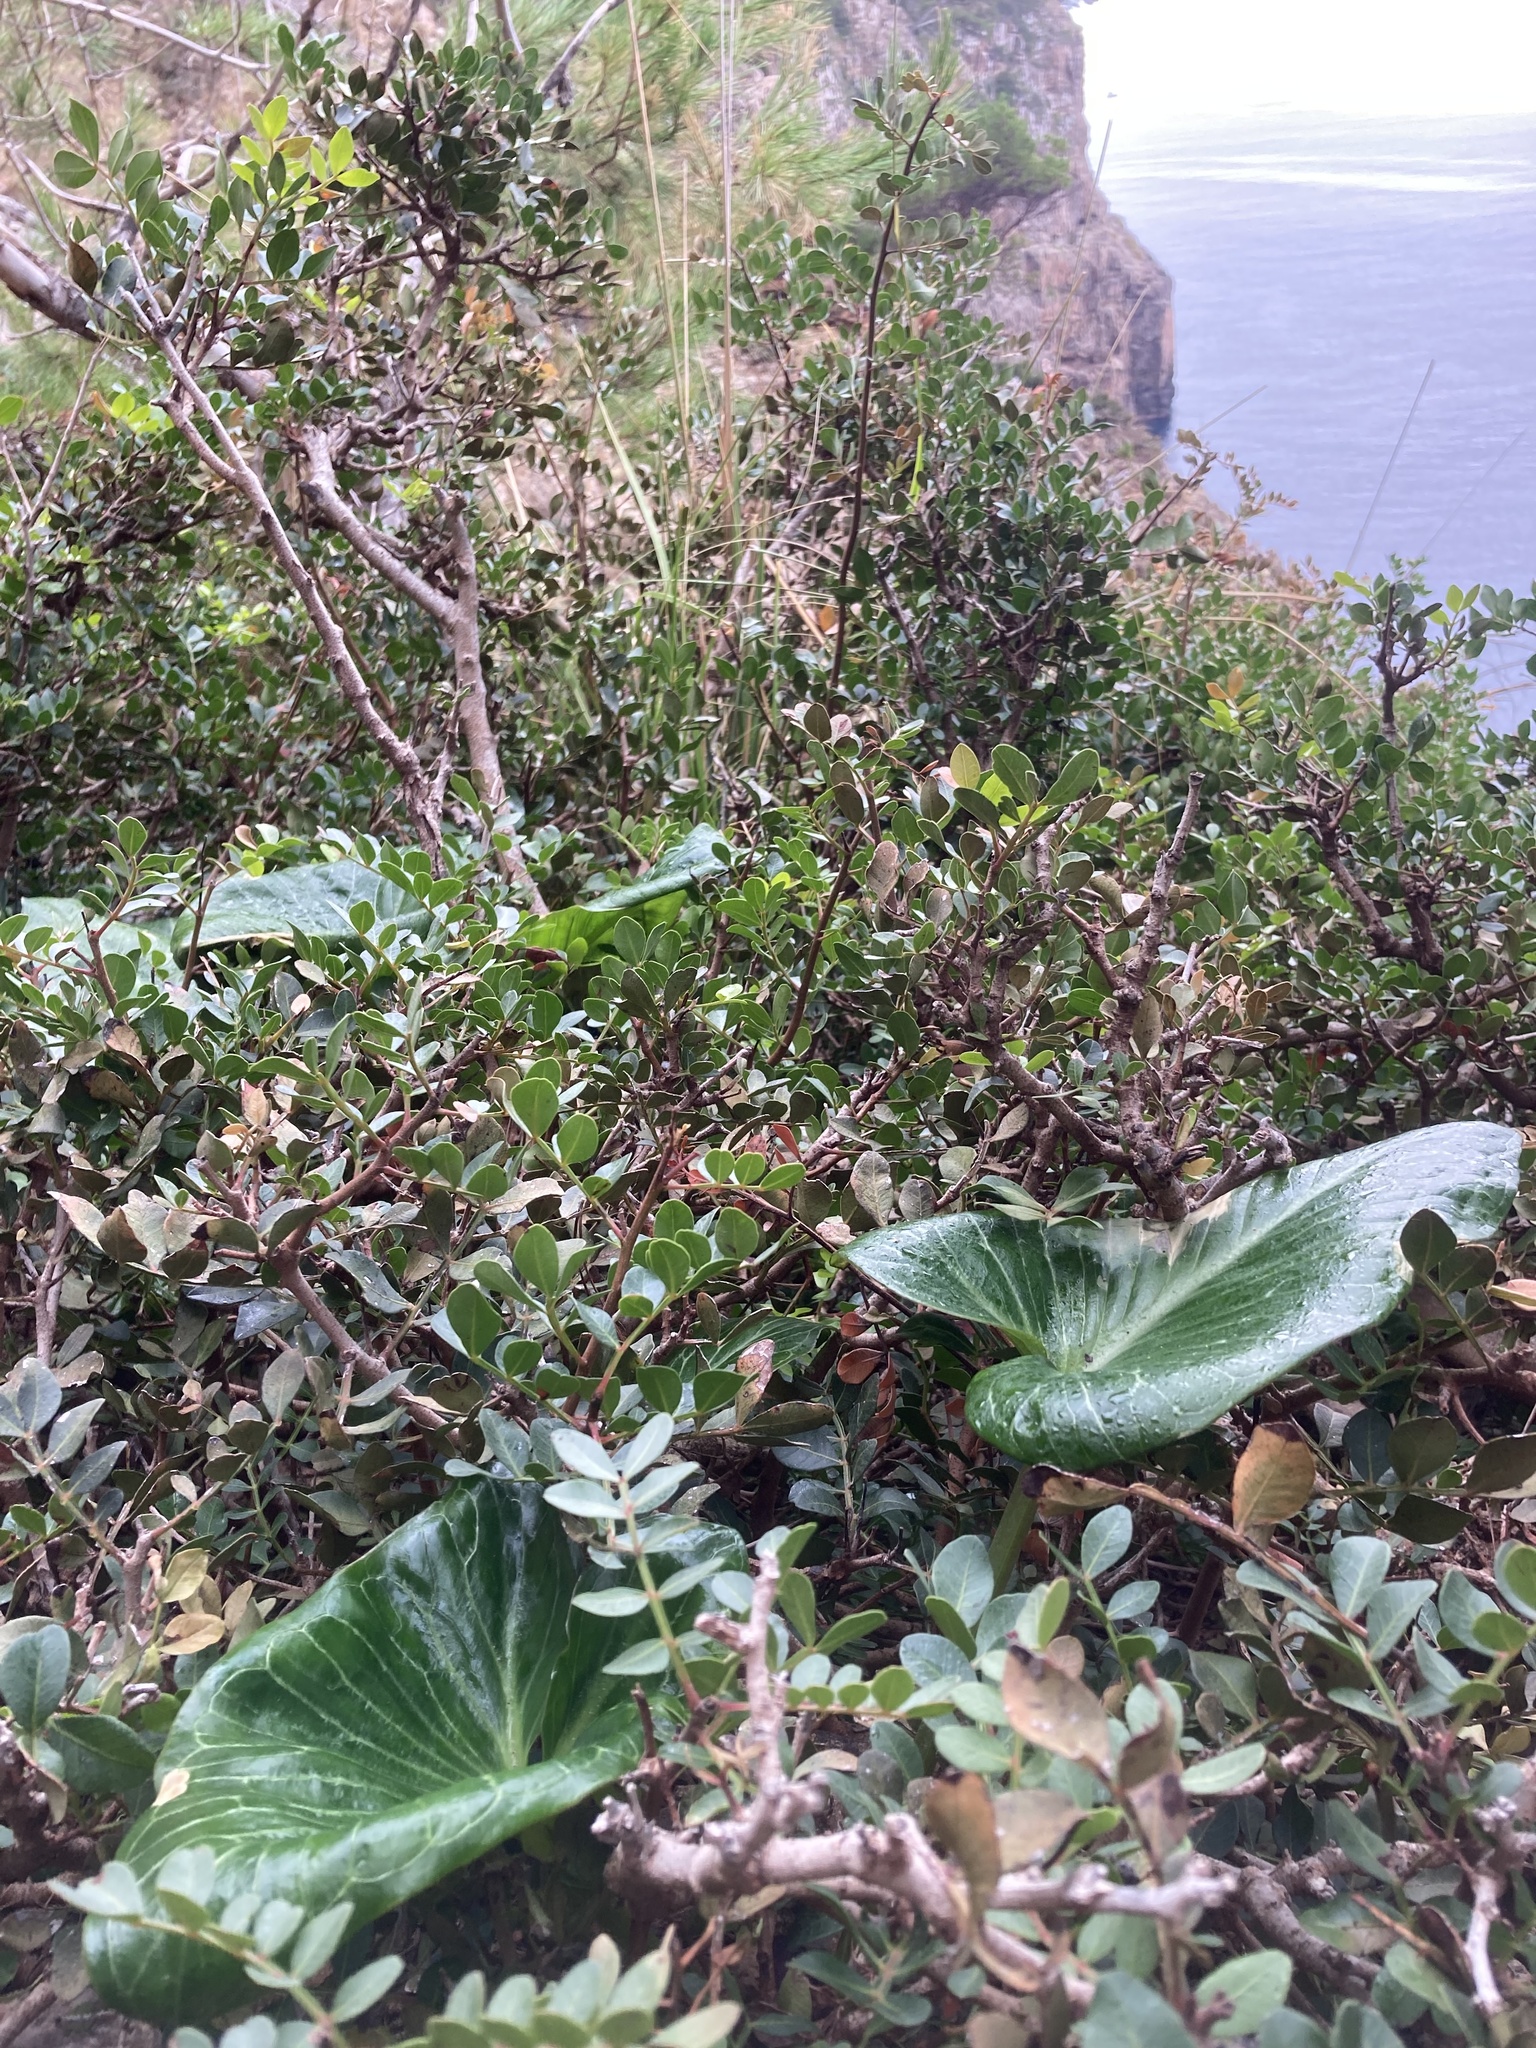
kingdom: Plantae
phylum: Tracheophyta
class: Liliopsida
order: Alismatales
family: Araceae
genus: Arum
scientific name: Arum pictum
